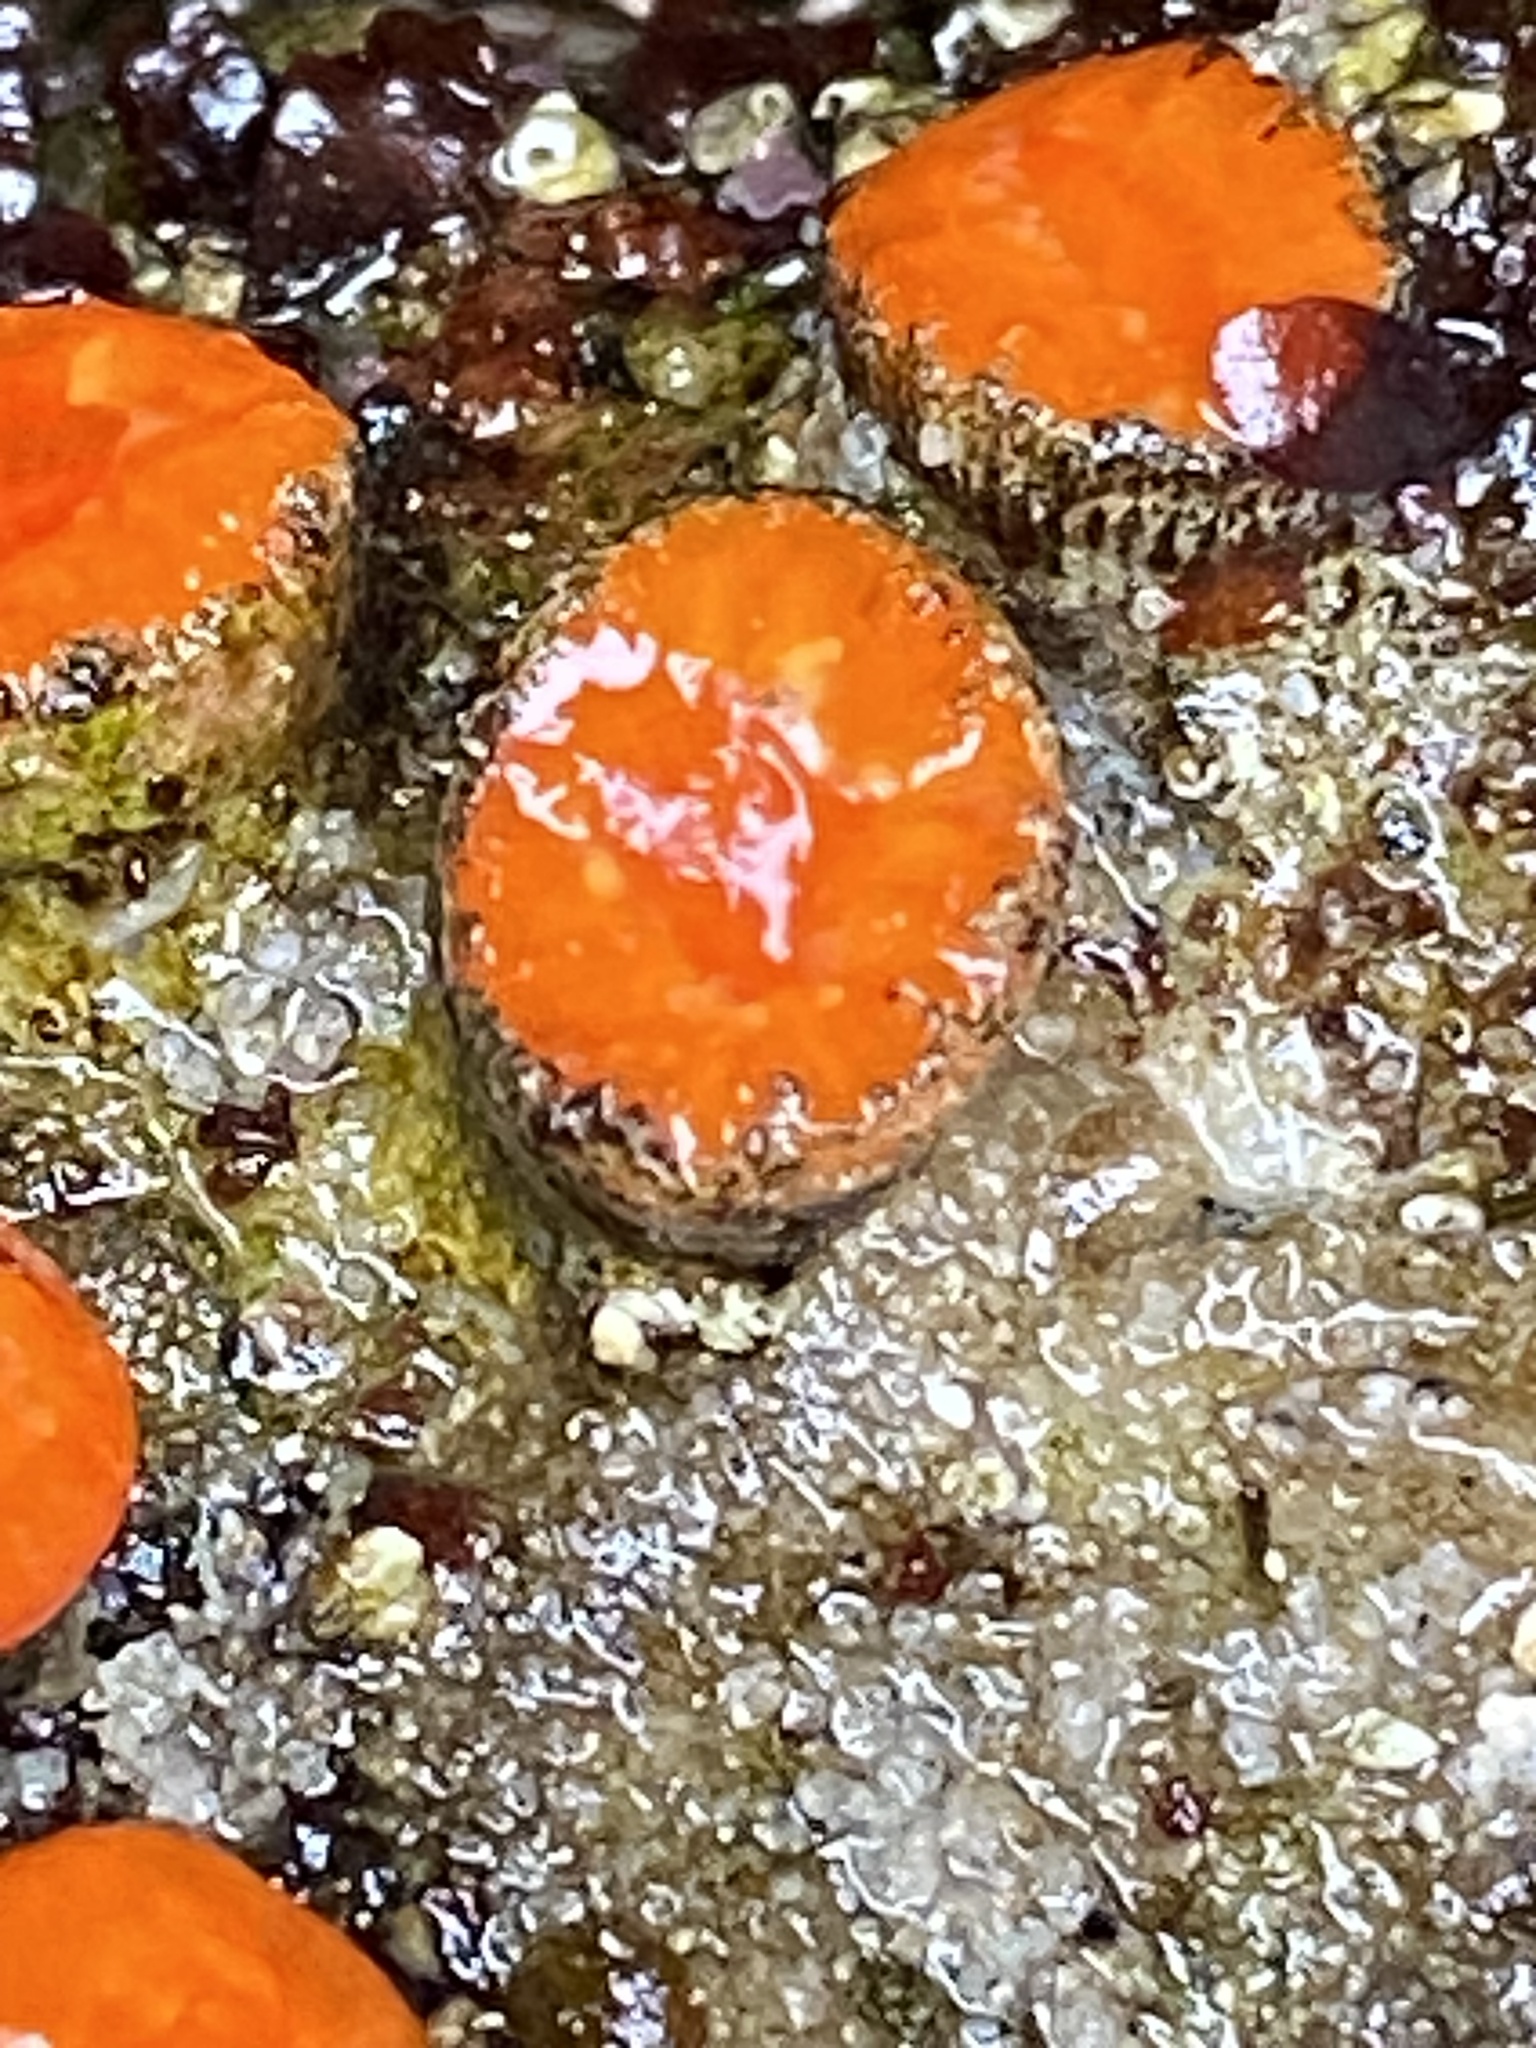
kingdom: Animalia
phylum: Cnidaria
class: Anthozoa
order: Scleractinia
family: Dendrophylliidae
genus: Balanophyllia
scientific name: Balanophyllia elegans
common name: Orange stony coral
